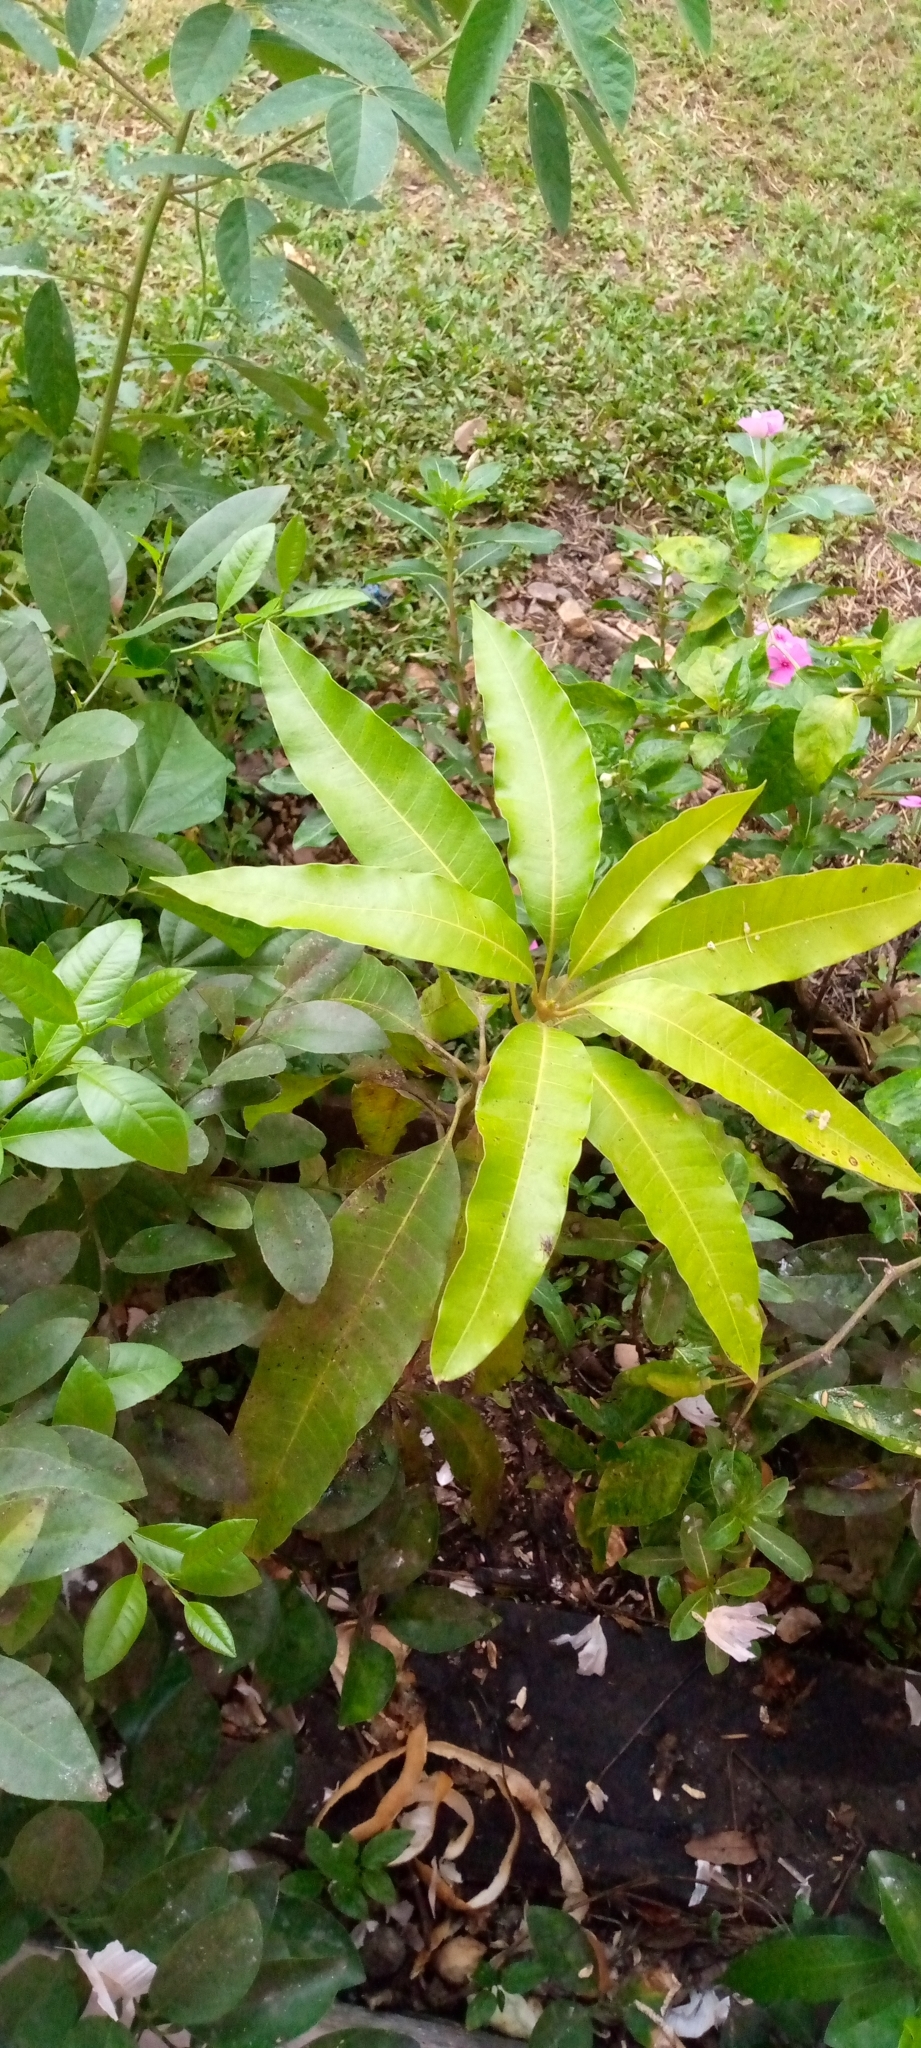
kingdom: Plantae
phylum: Tracheophyta
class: Magnoliopsida
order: Sapindales
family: Anacardiaceae
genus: Mangifera
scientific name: Mangifera indica
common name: Mango
